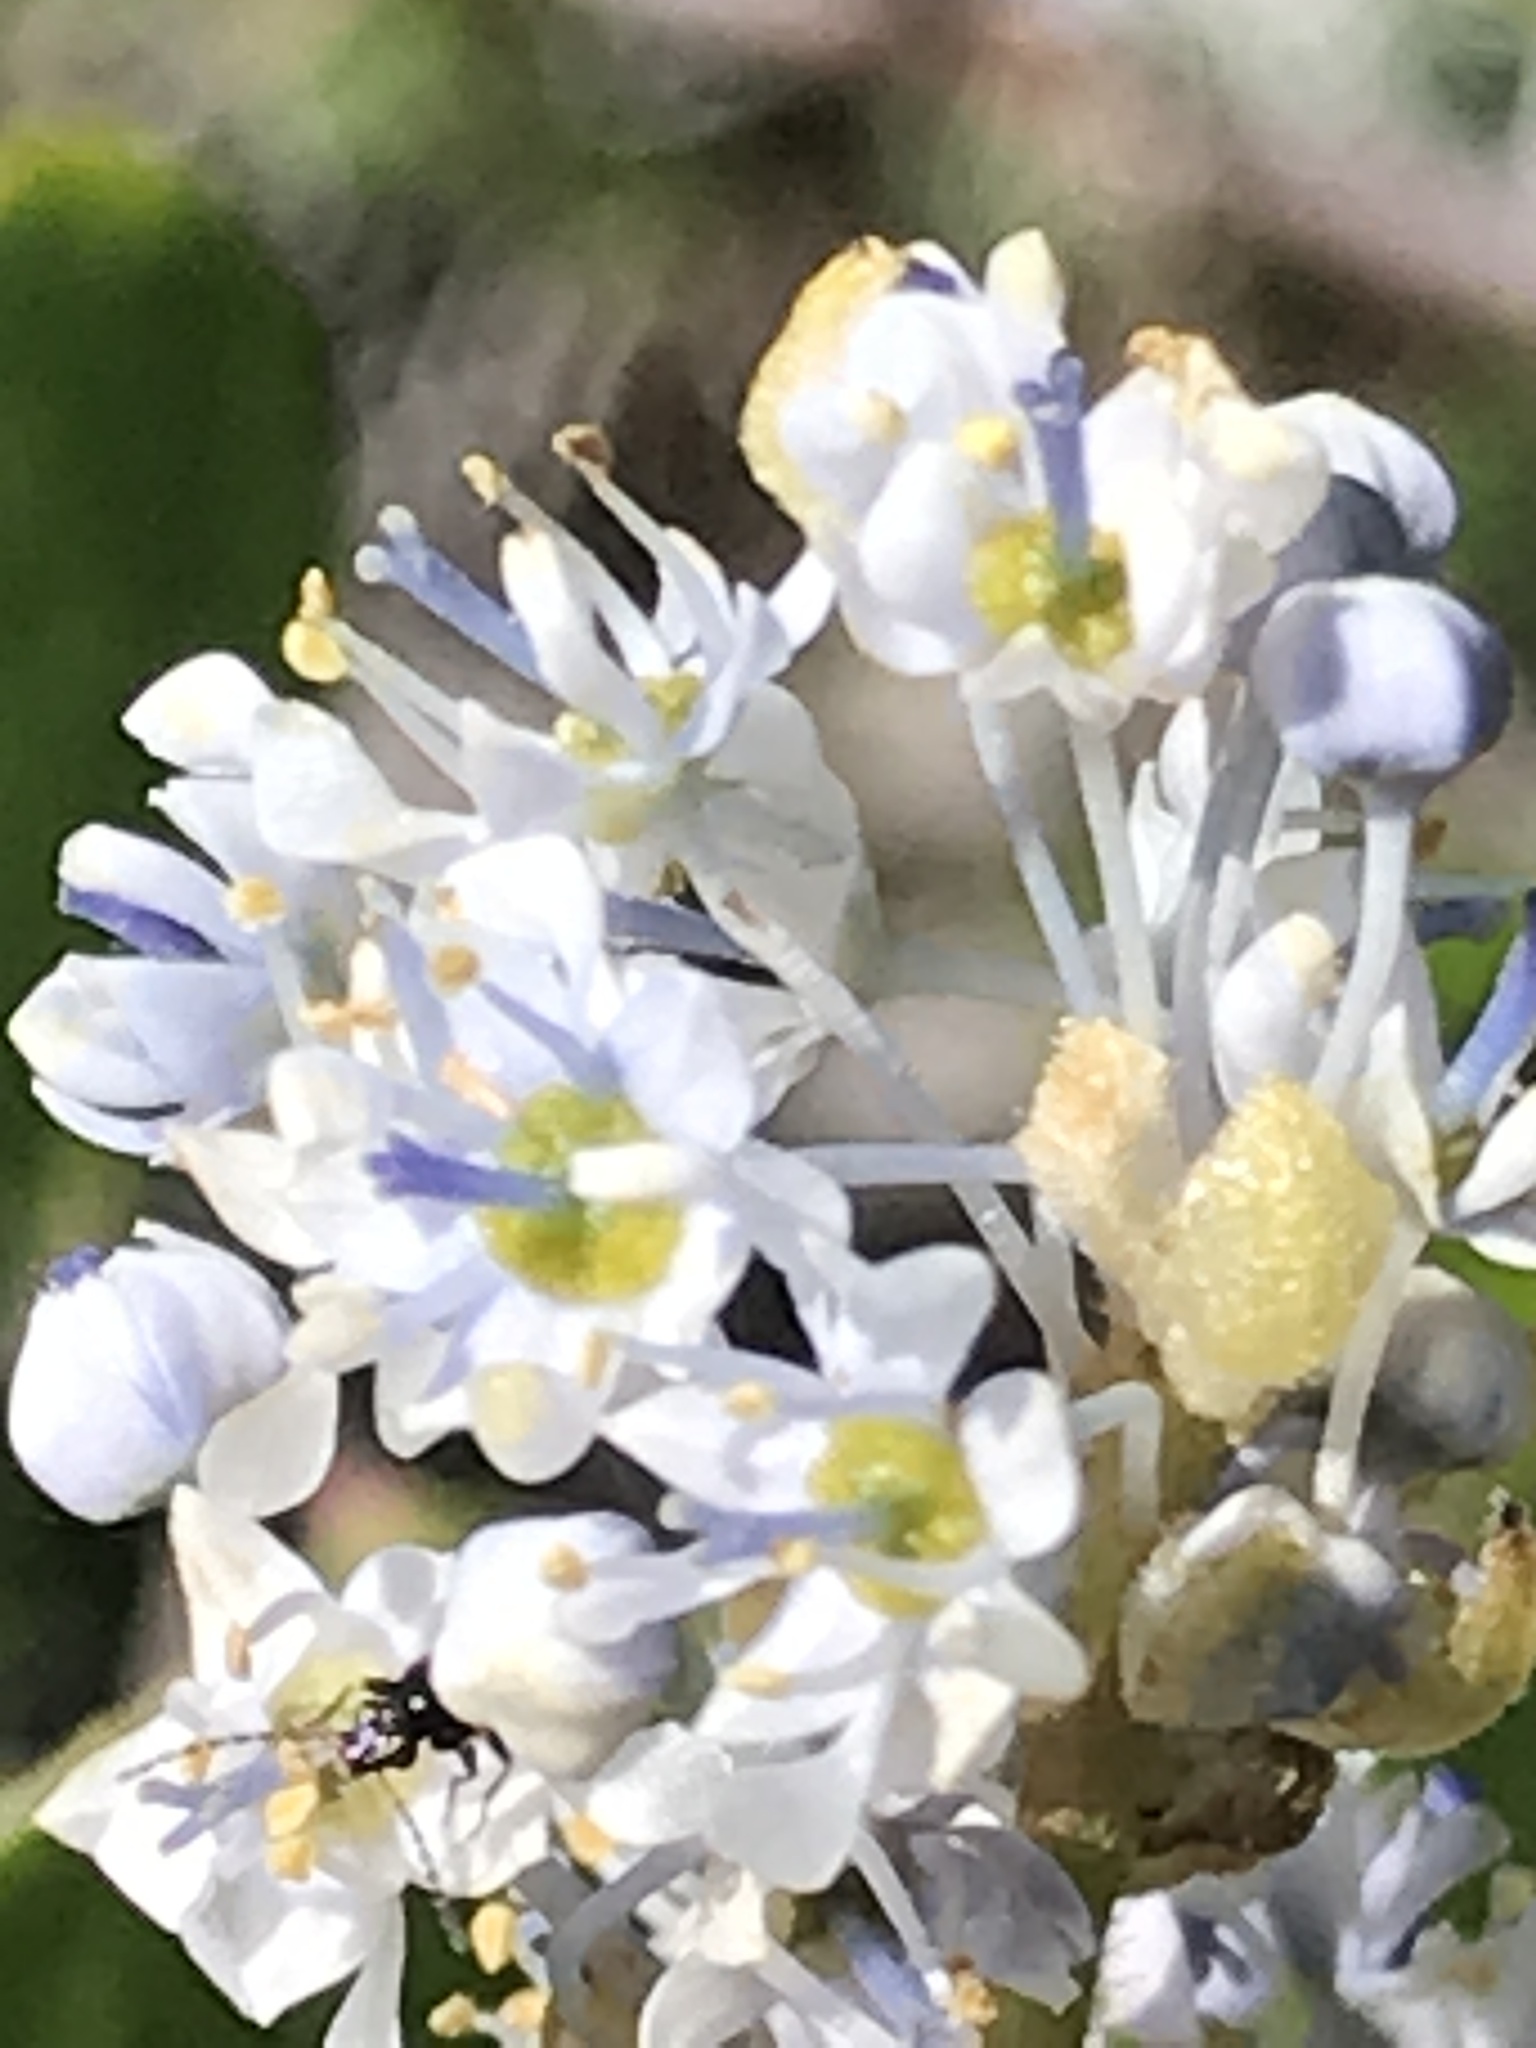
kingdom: Plantae
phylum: Tracheophyta
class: Magnoliopsida
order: Rosales
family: Rhamnaceae
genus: Ceanothus
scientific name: Ceanothus sorediatus
